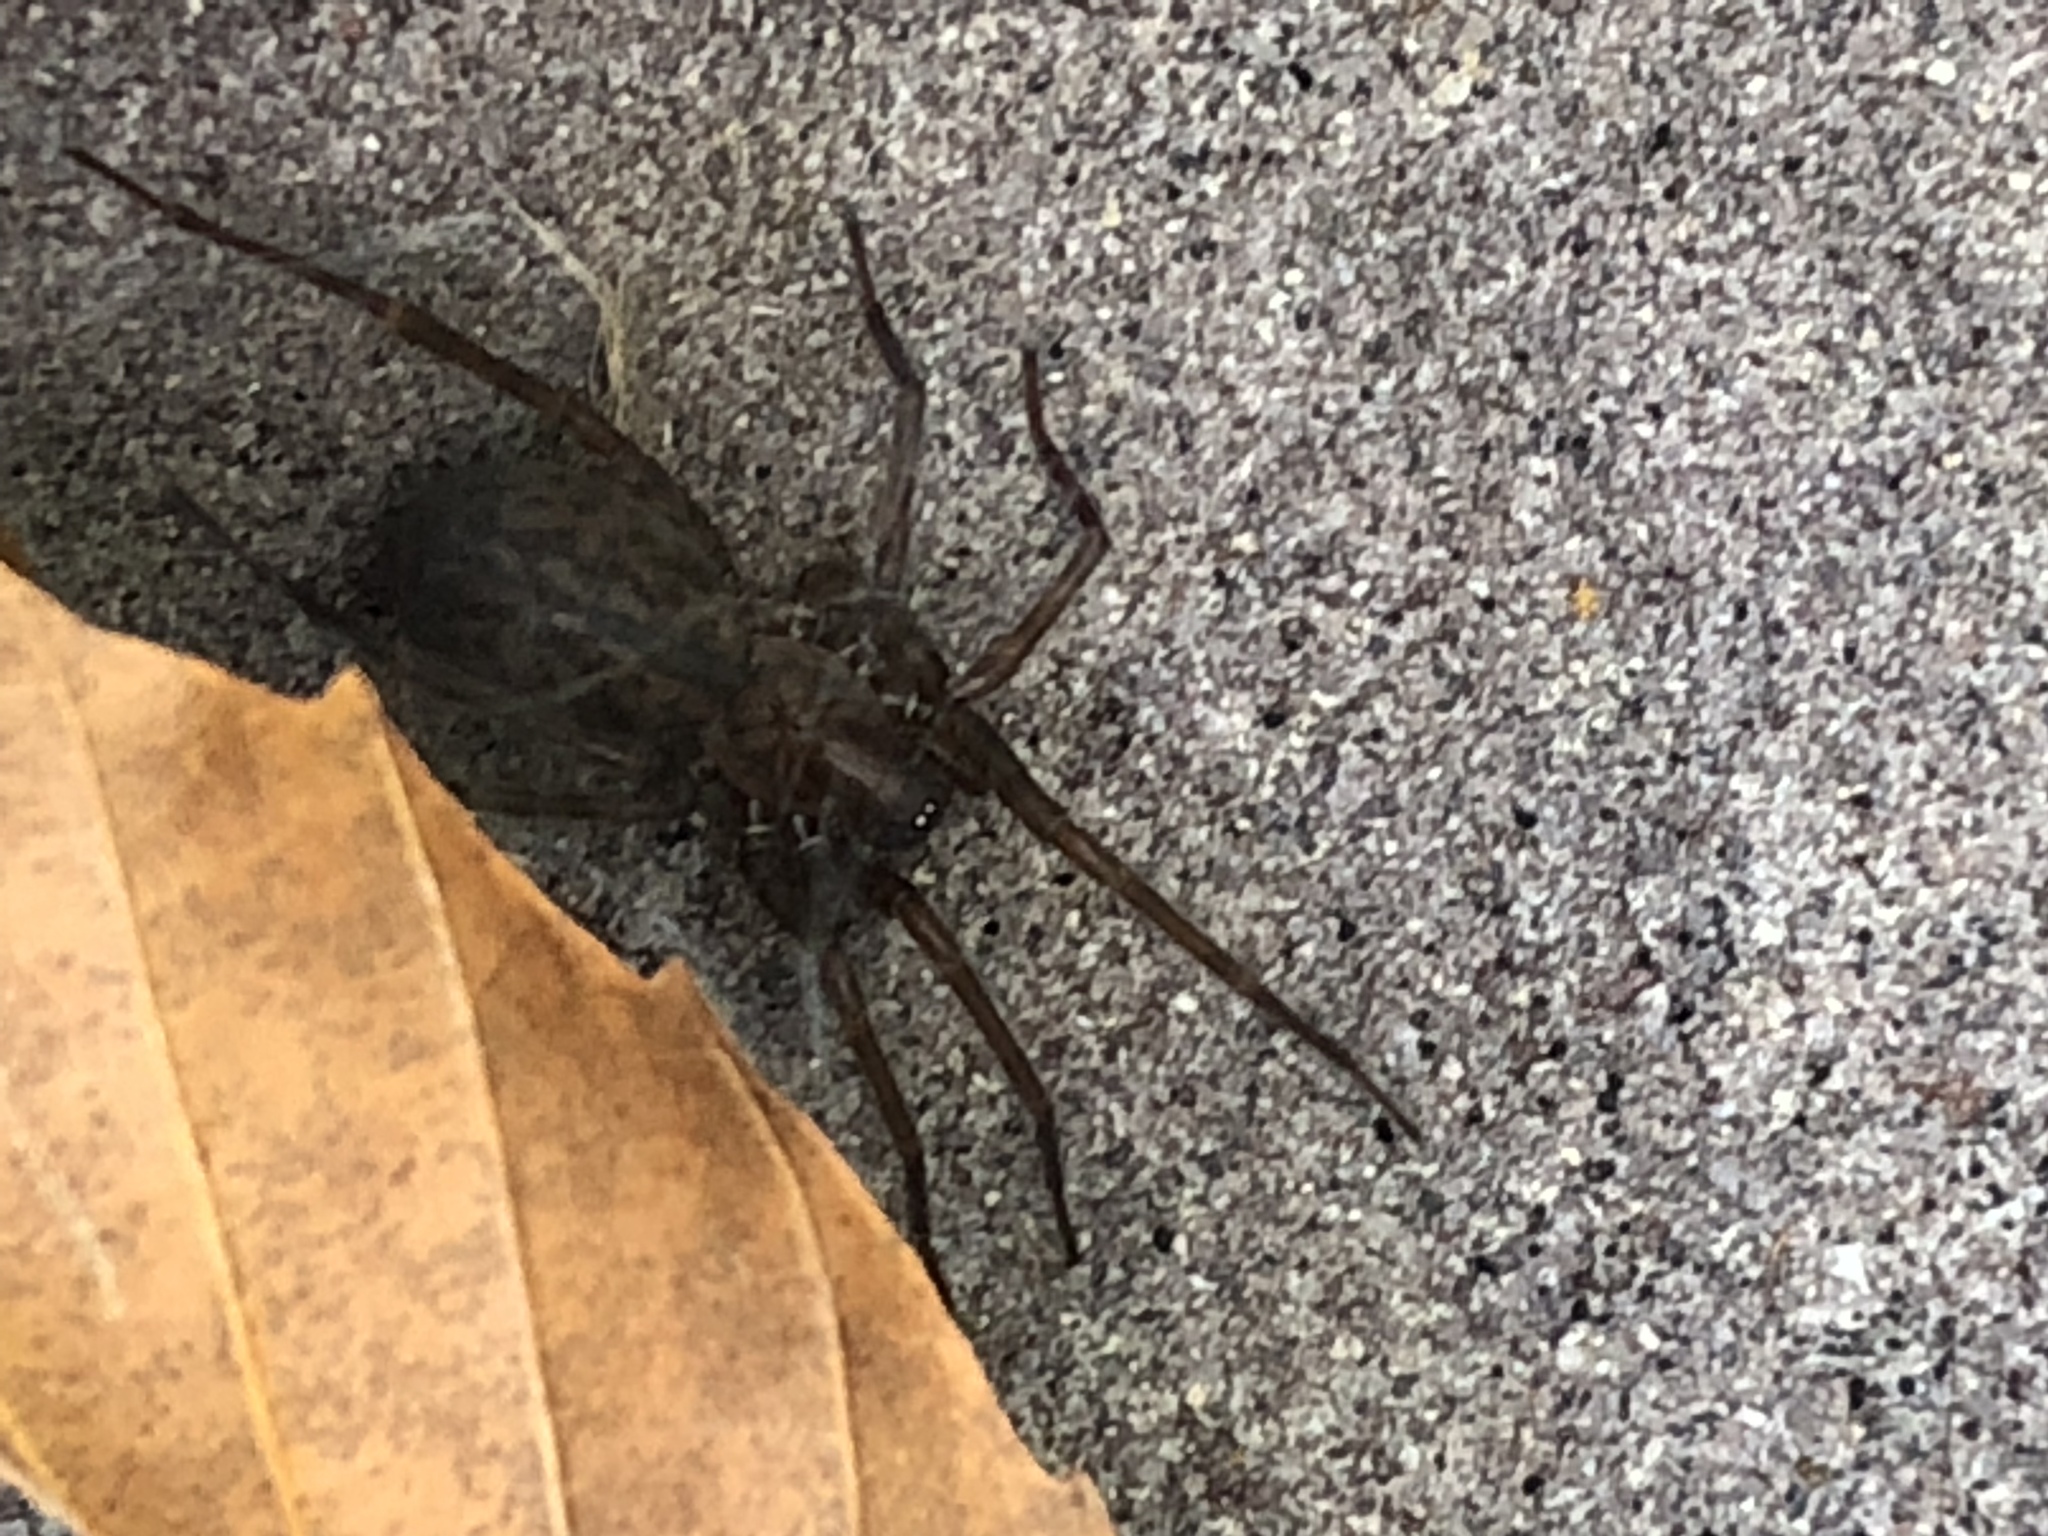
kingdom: Animalia
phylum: Arthropoda
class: Arachnida
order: Araneae
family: Agelenidae
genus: Coras
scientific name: Coras
